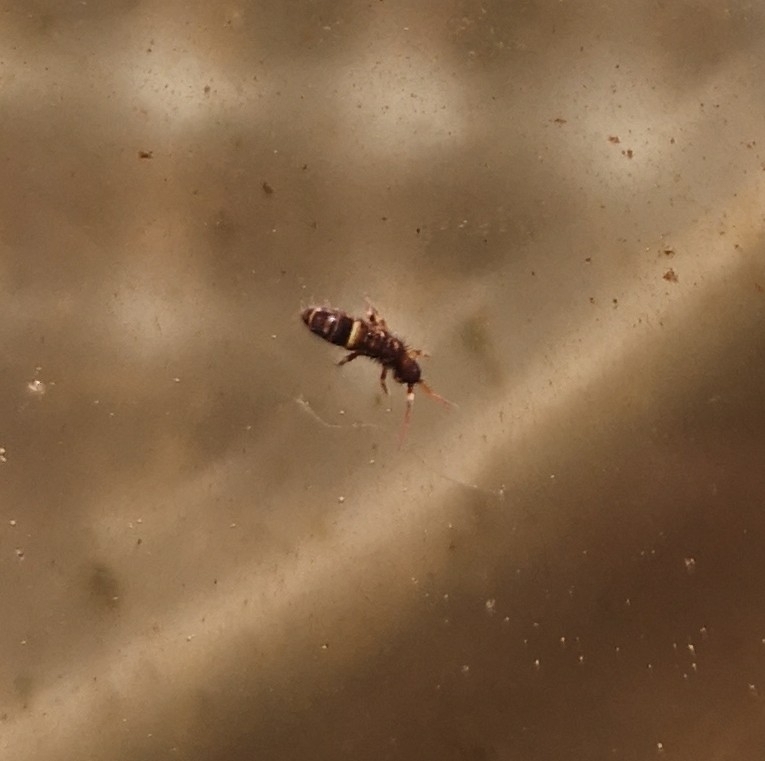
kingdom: Animalia
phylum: Arthropoda
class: Collembola
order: Entomobryomorpha
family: Orchesellidae
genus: Orchesella
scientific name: Orchesella cincta
